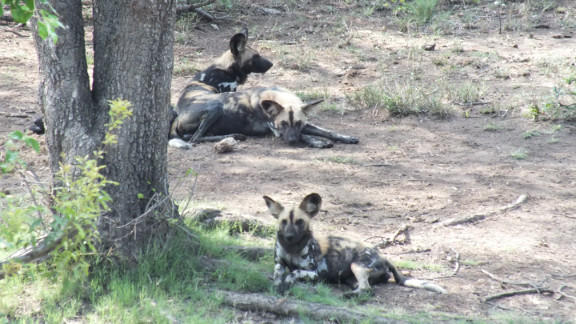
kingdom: Animalia
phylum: Chordata
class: Mammalia
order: Carnivora
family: Canidae
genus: Lycaon
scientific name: Lycaon pictus
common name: African wild dog
